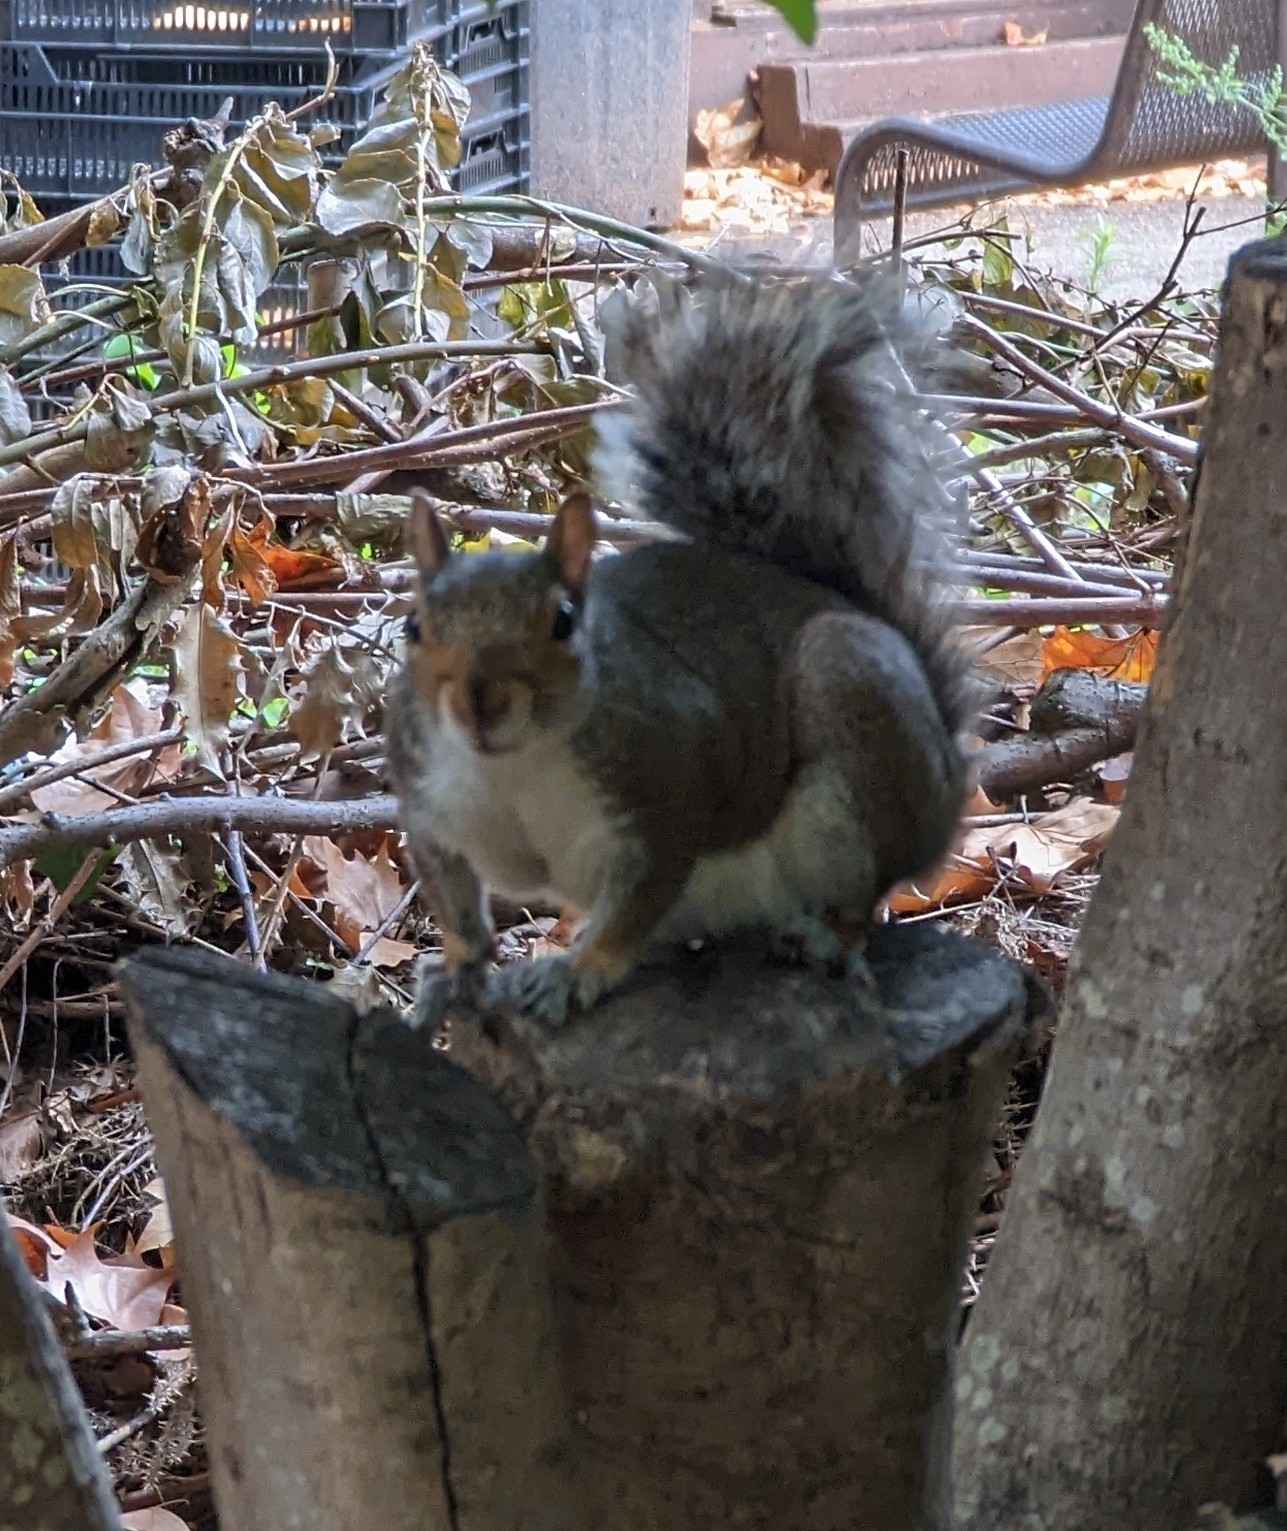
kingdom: Animalia
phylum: Chordata
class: Mammalia
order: Rodentia
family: Sciuridae
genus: Sciurus
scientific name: Sciurus carolinensis
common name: Eastern gray squirrel
